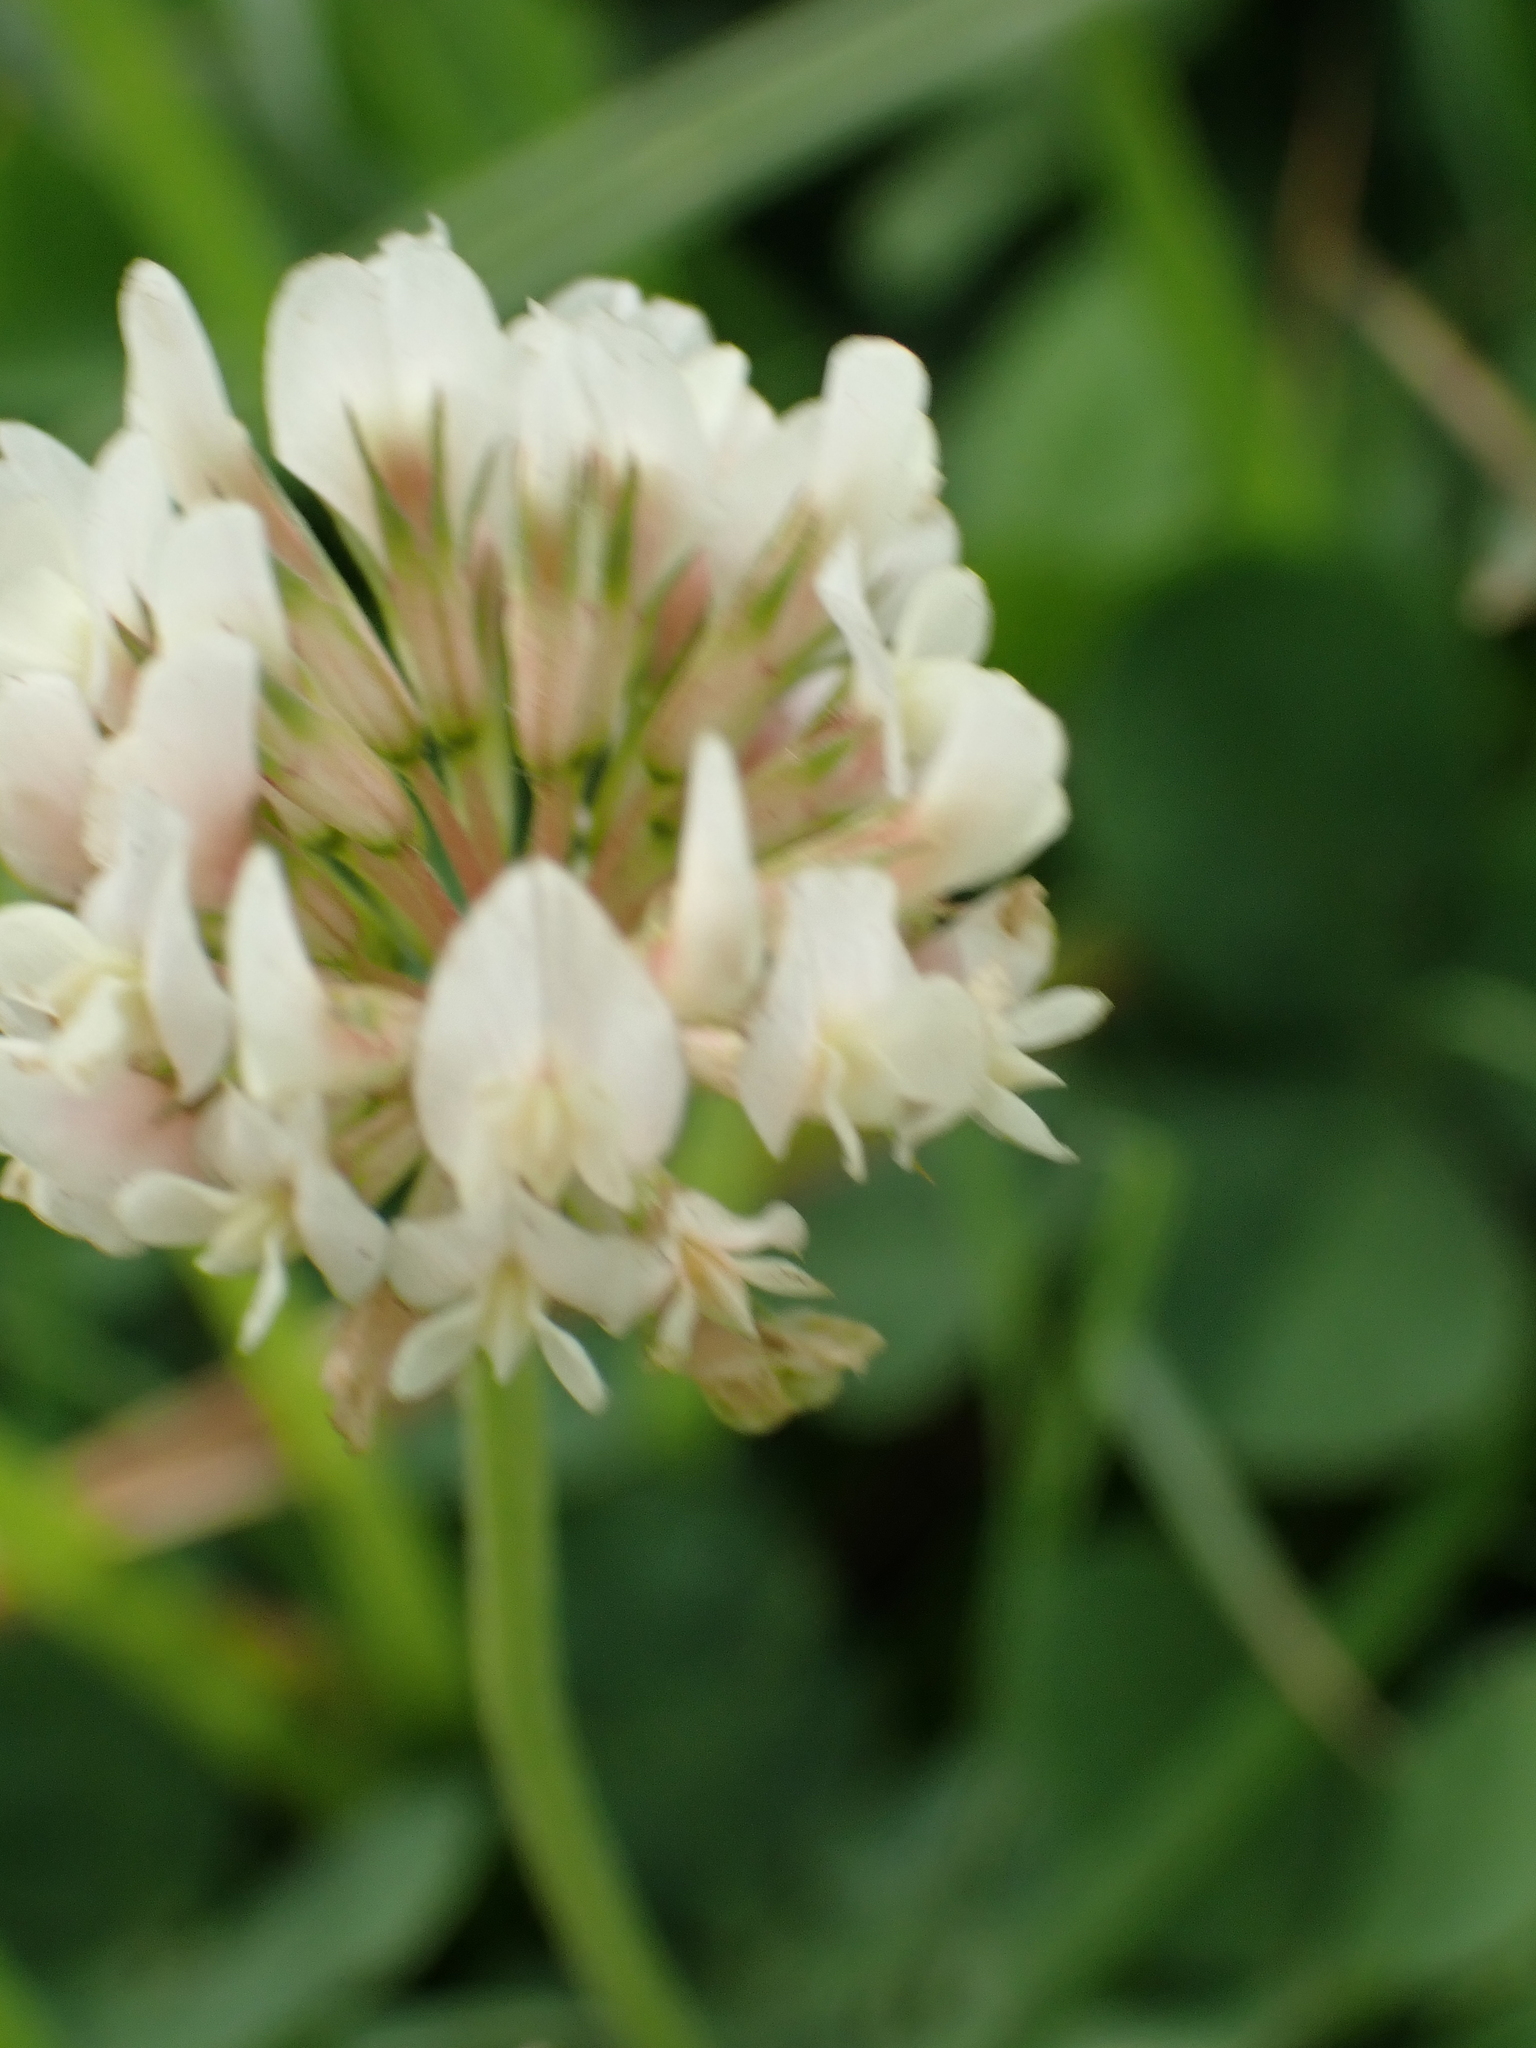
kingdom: Plantae
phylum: Tracheophyta
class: Magnoliopsida
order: Fabales
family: Fabaceae
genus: Trifolium
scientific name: Trifolium repens
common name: White clover
